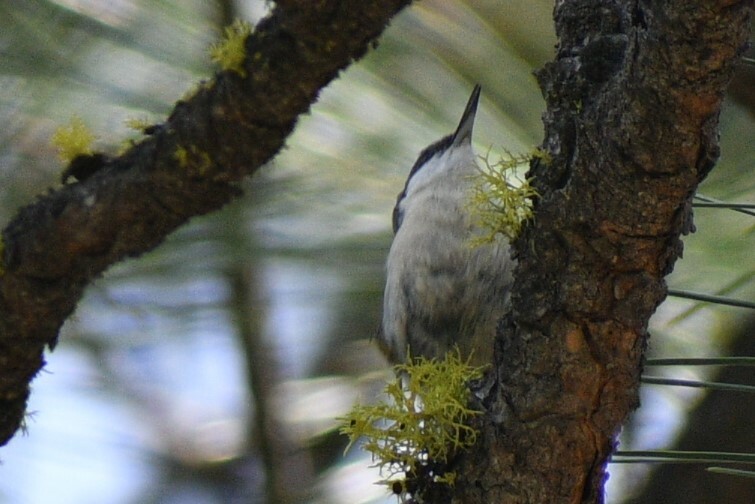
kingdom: Animalia
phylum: Chordata
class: Aves
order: Passeriformes
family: Sittidae
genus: Sitta
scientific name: Sitta pygmaea
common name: Pygmy nuthatch
